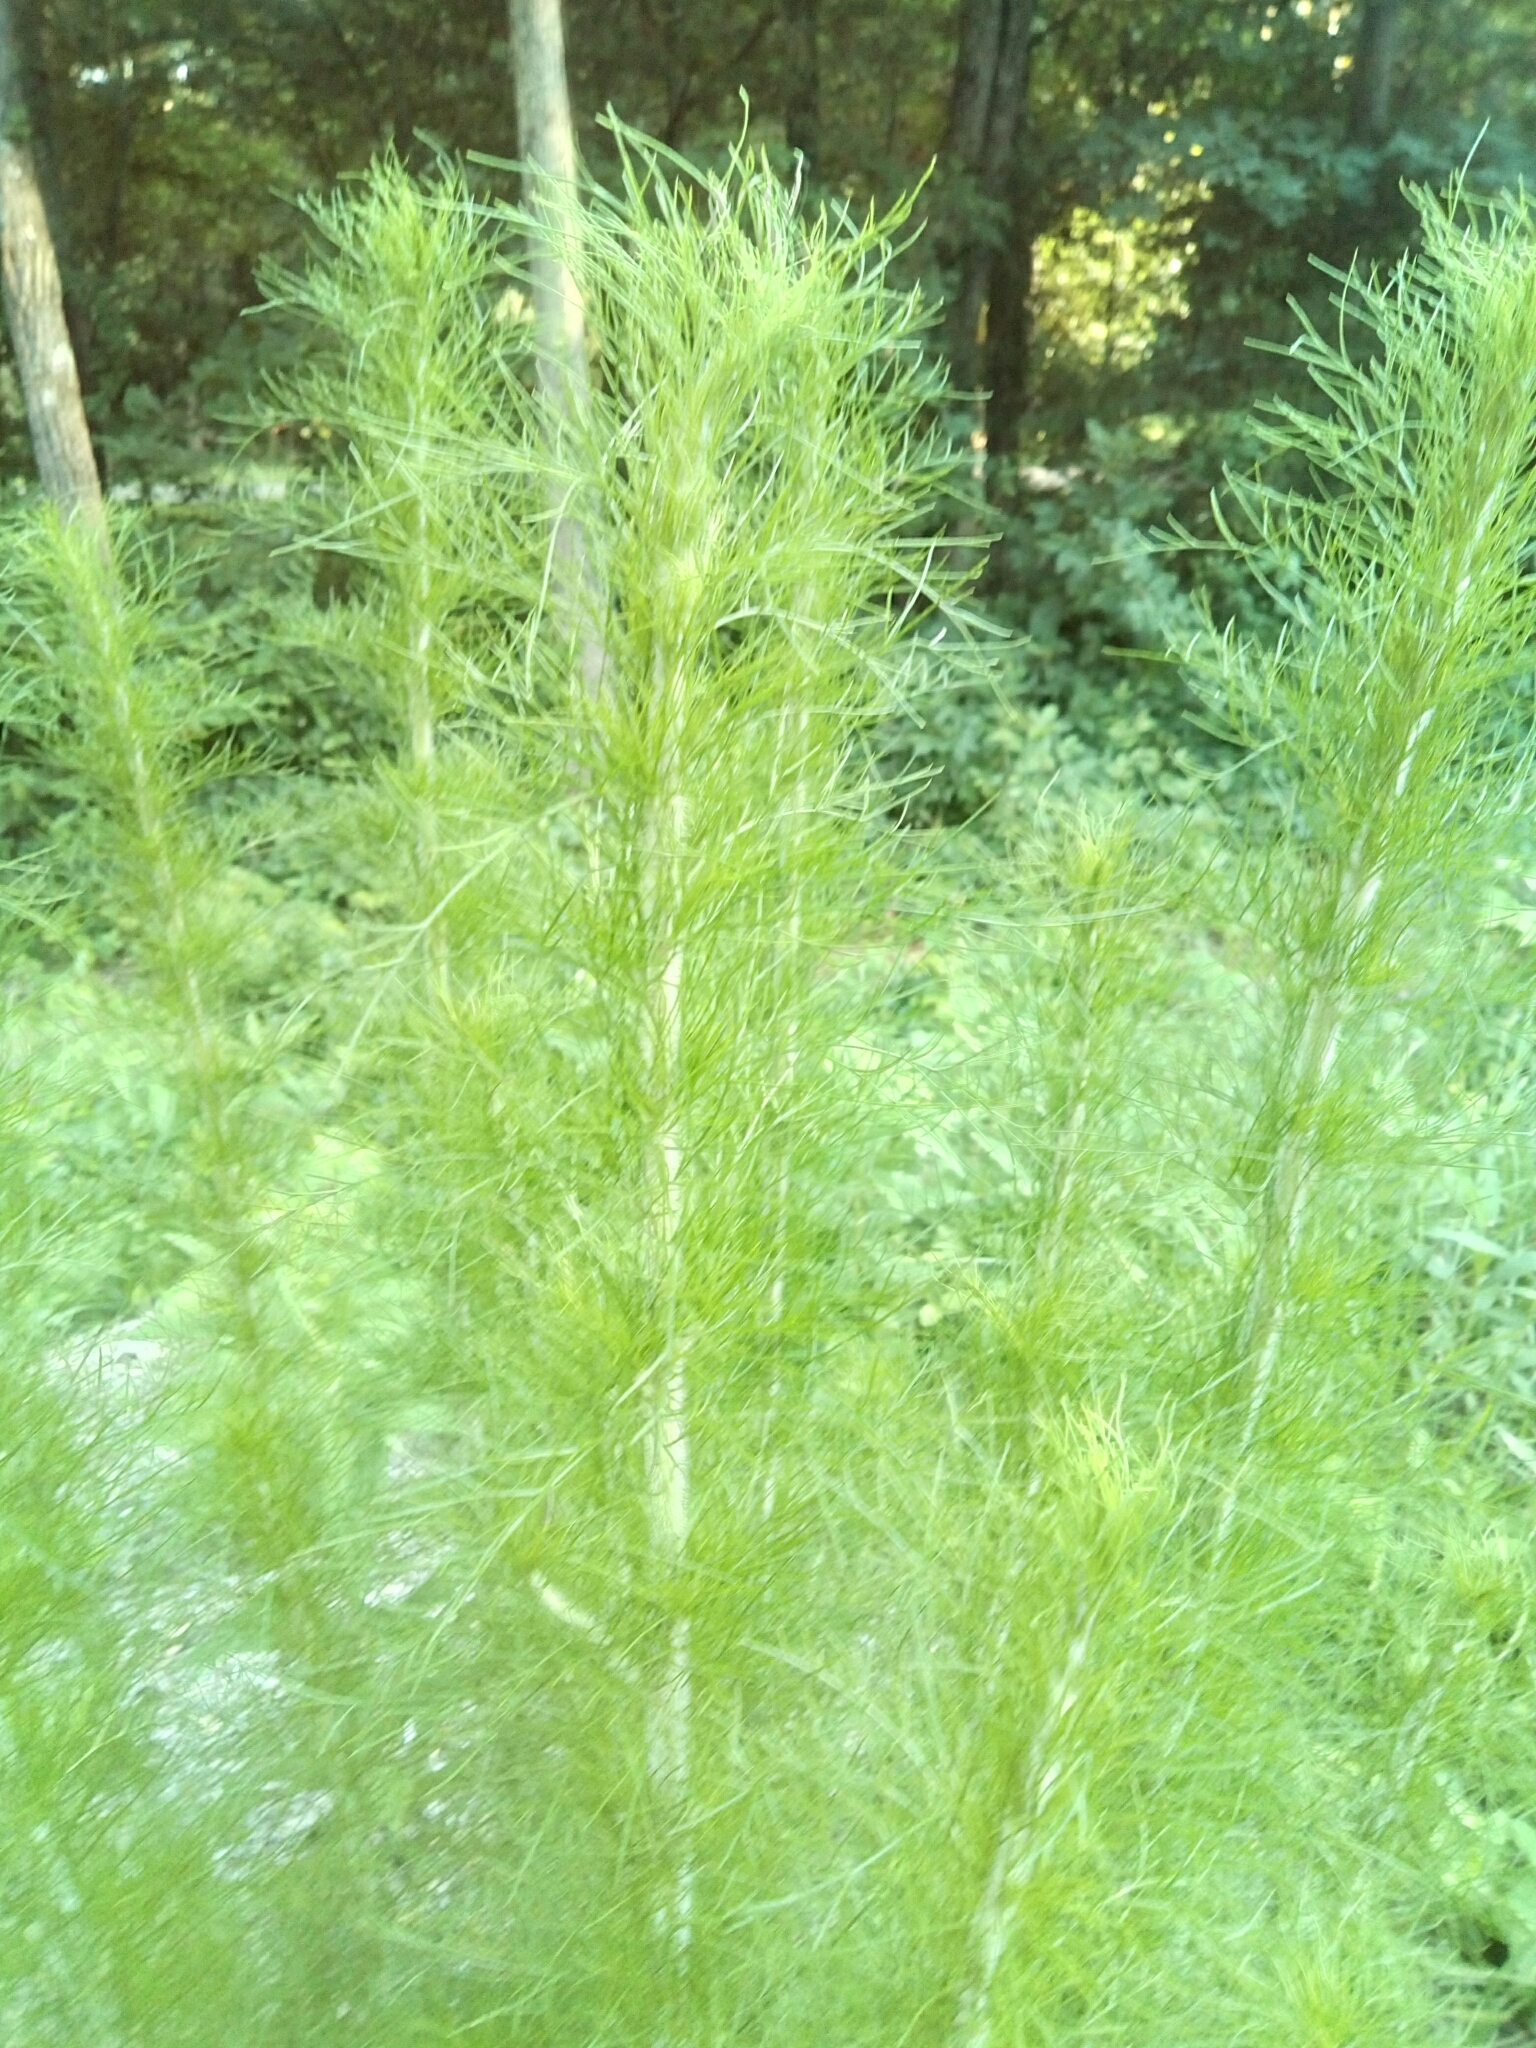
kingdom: Plantae
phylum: Tracheophyta
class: Magnoliopsida
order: Asterales
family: Asteraceae
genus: Eupatorium
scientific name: Eupatorium capillifolium
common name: Dog-fennel
